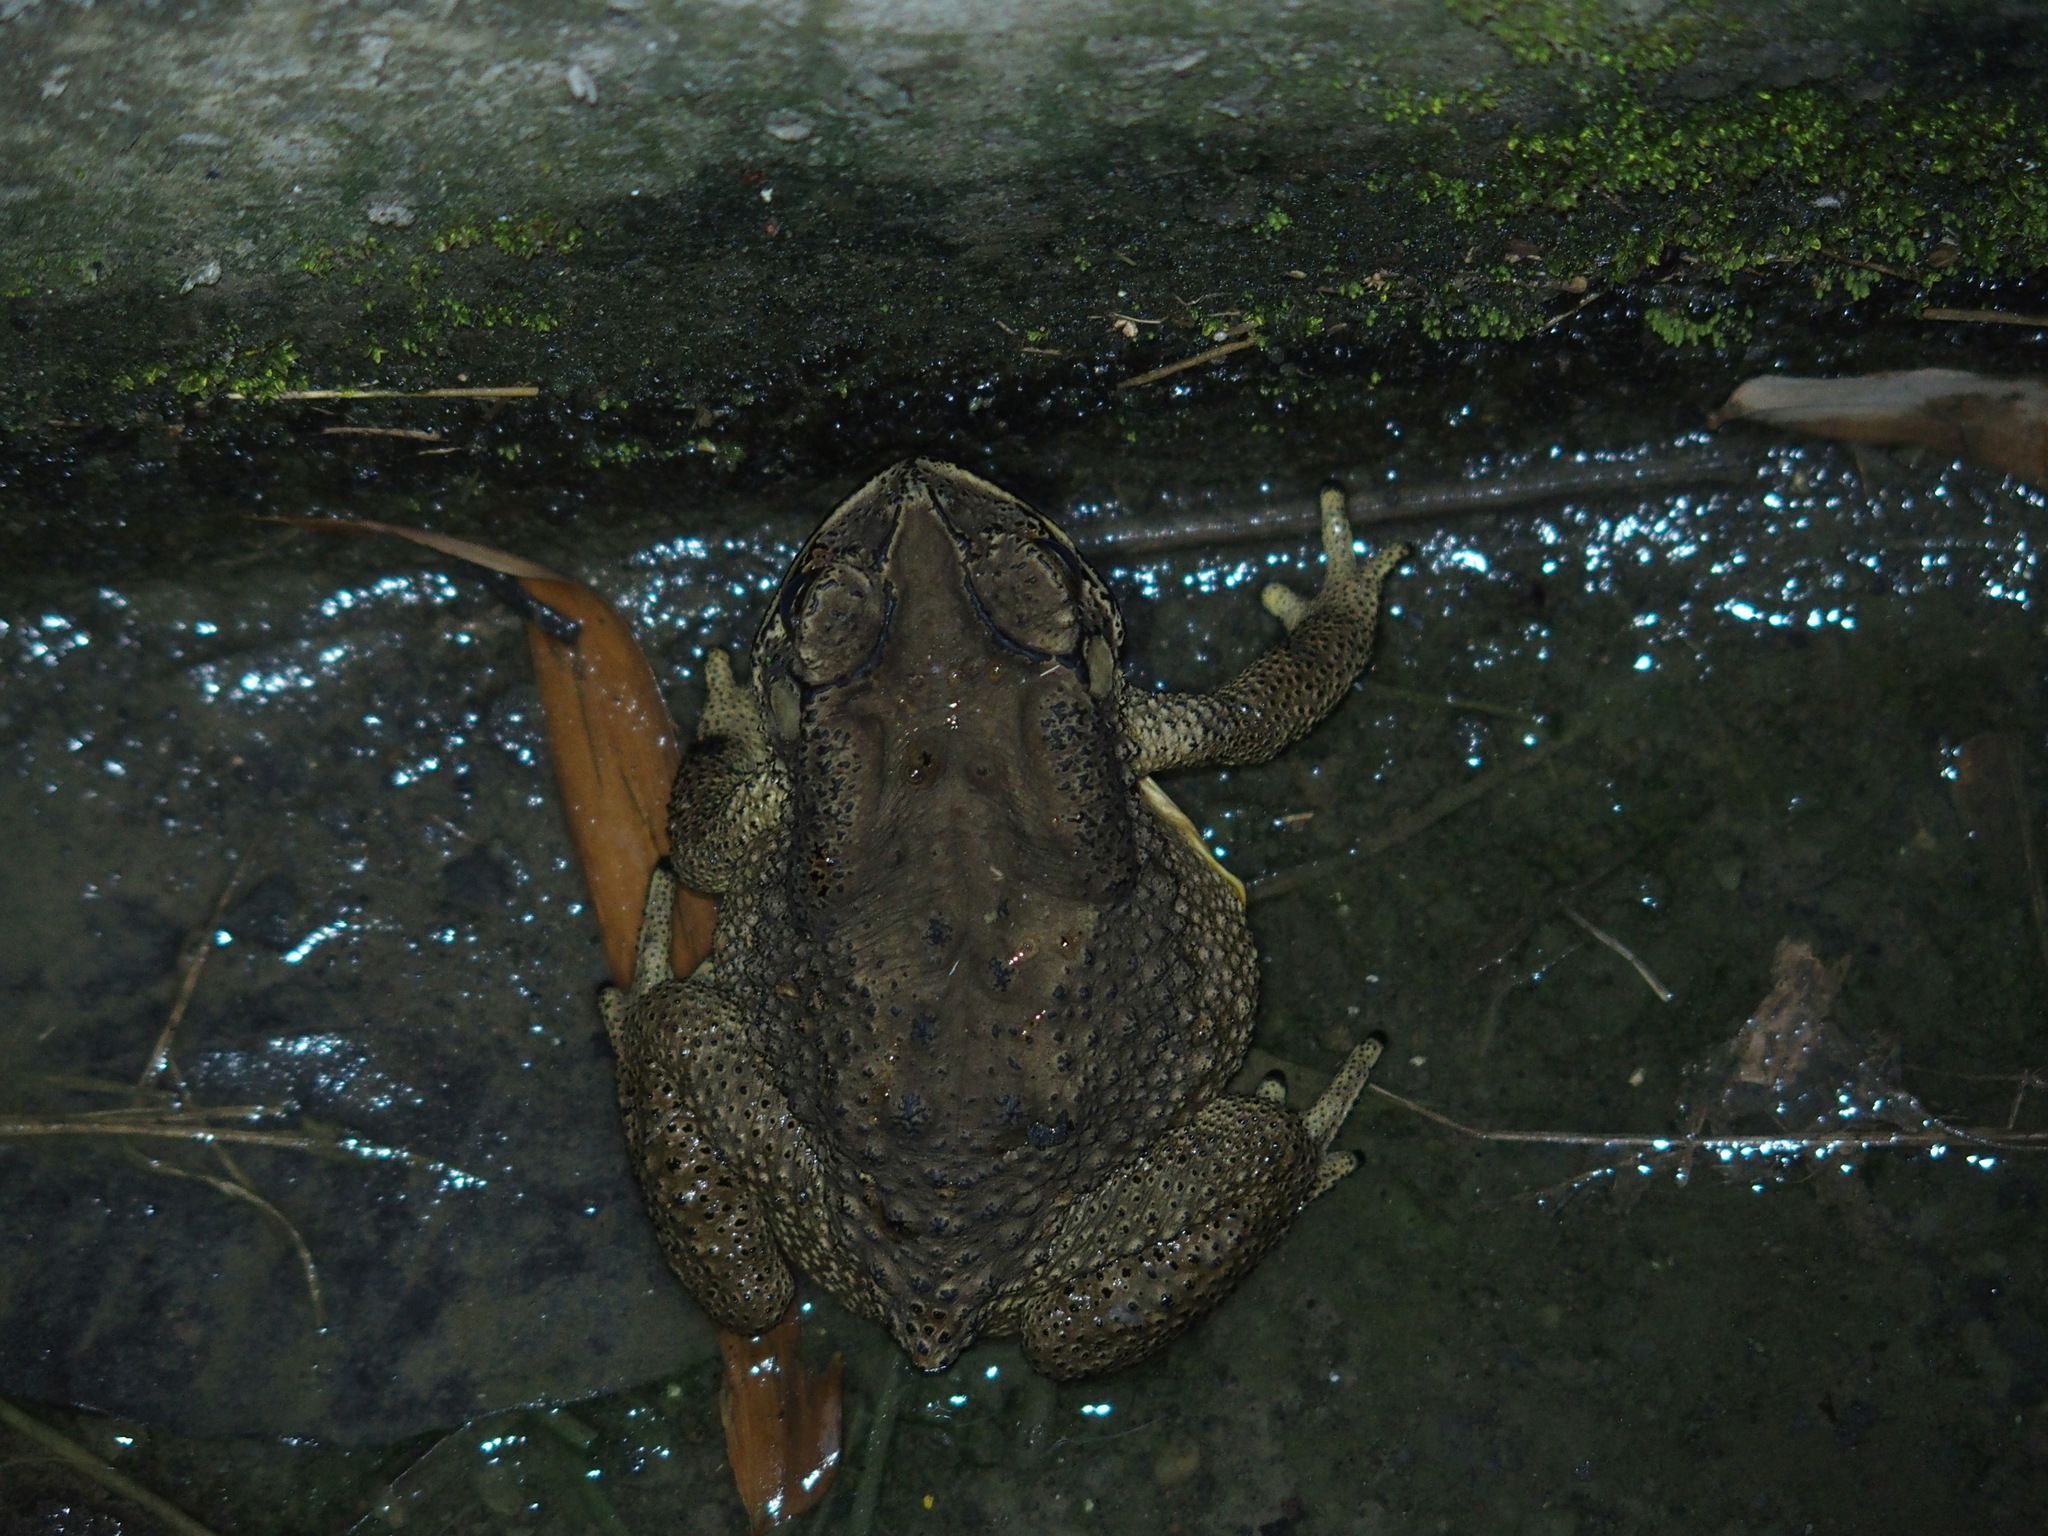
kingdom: Animalia
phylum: Chordata
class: Amphibia
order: Anura
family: Bufonidae
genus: Duttaphrynus
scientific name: Duttaphrynus melanostictus
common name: Common sunda toad
